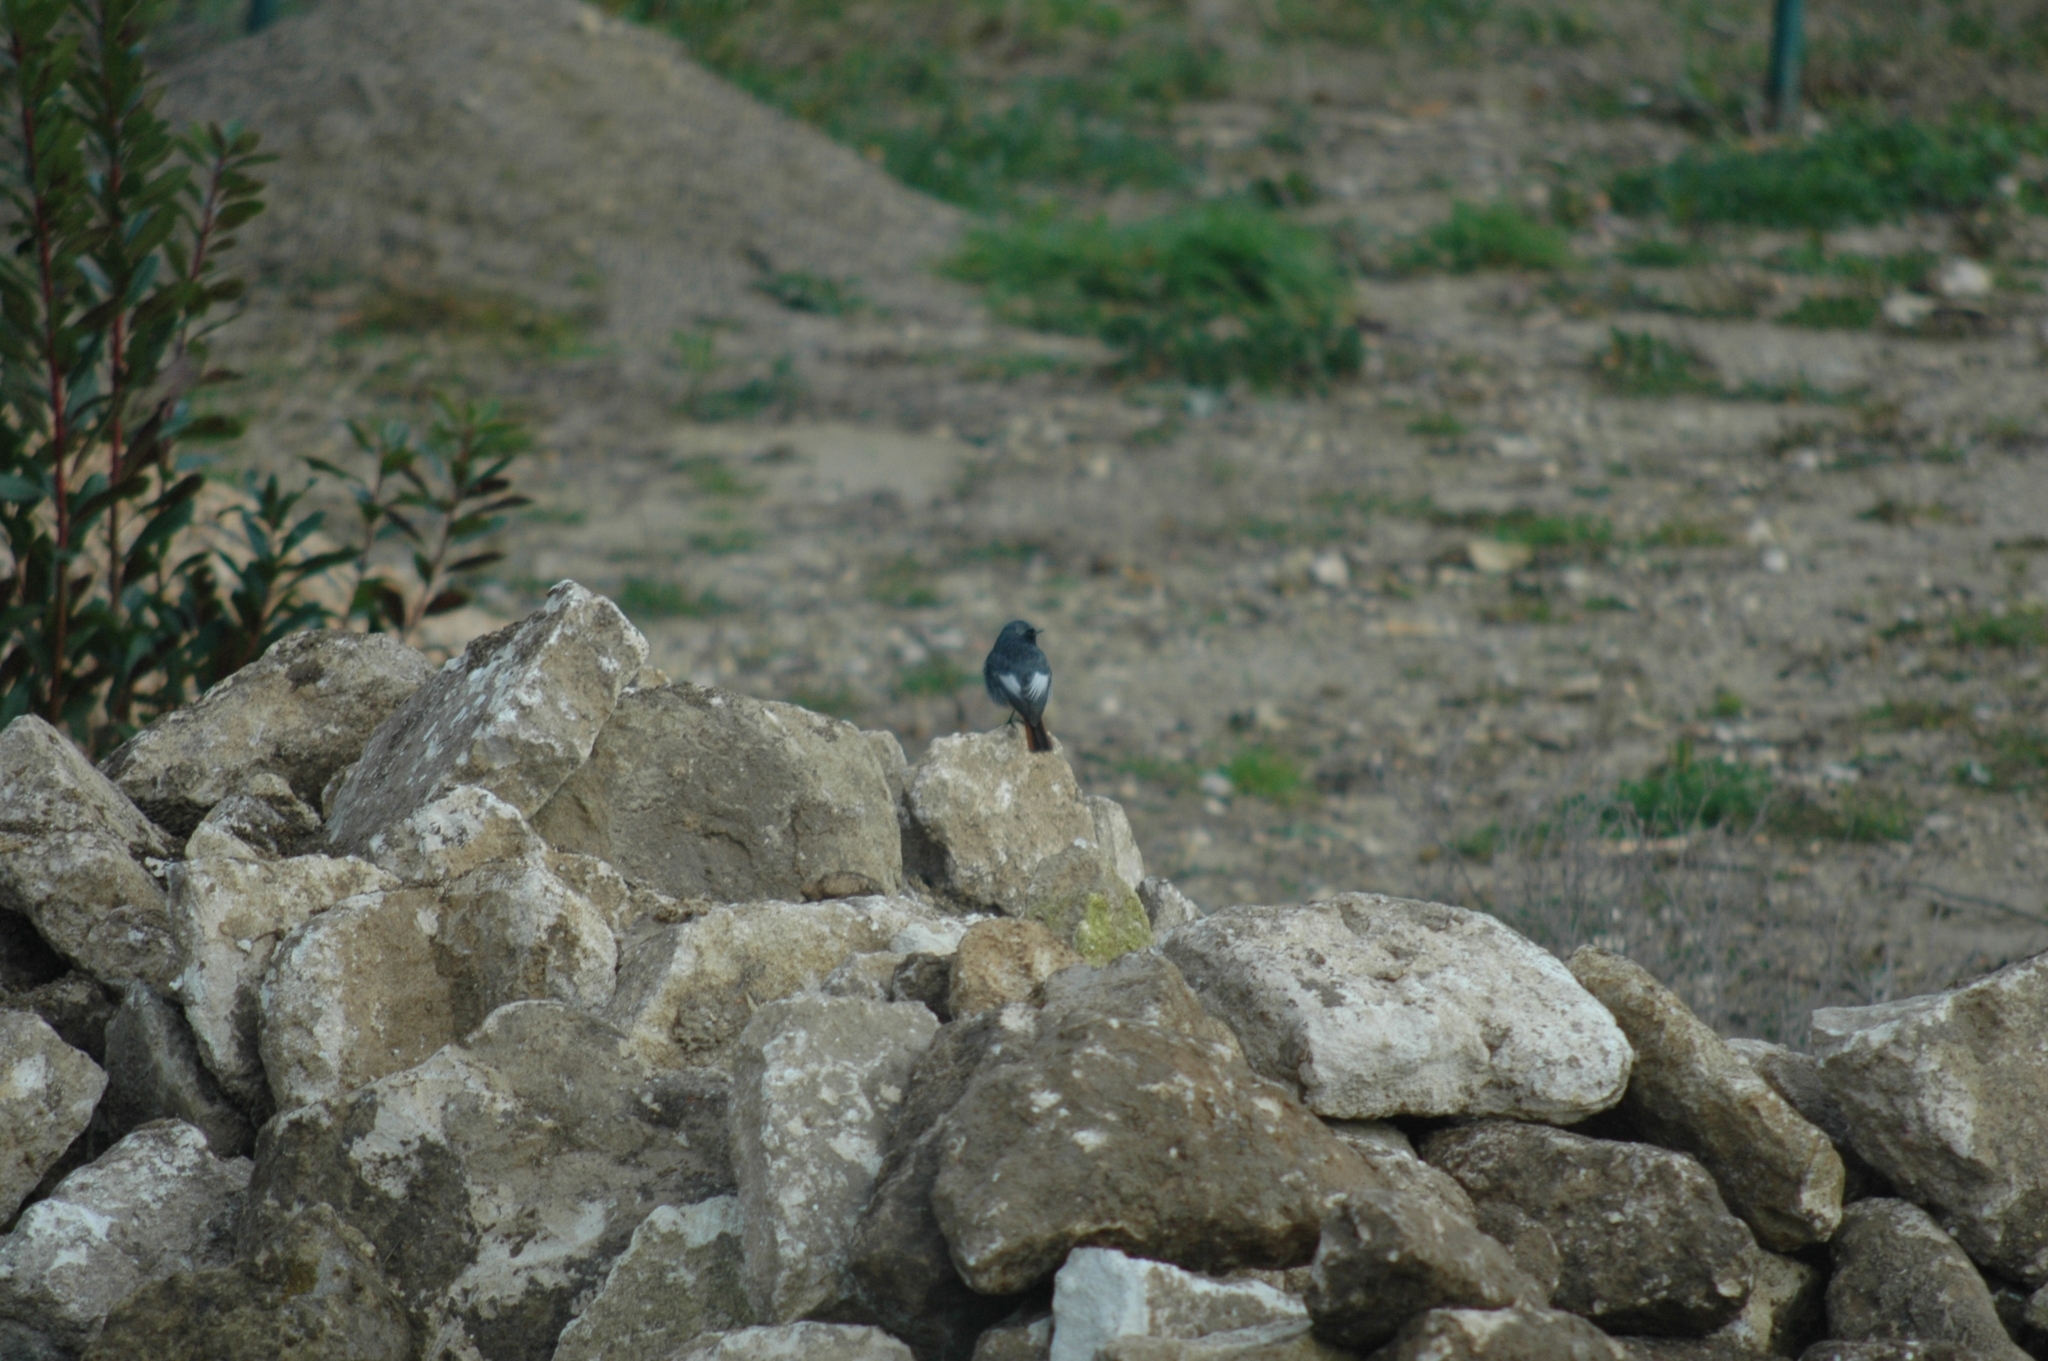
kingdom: Animalia
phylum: Chordata
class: Aves
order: Passeriformes
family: Muscicapidae
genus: Phoenicurus
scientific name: Phoenicurus ochruros
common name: Black redstart
